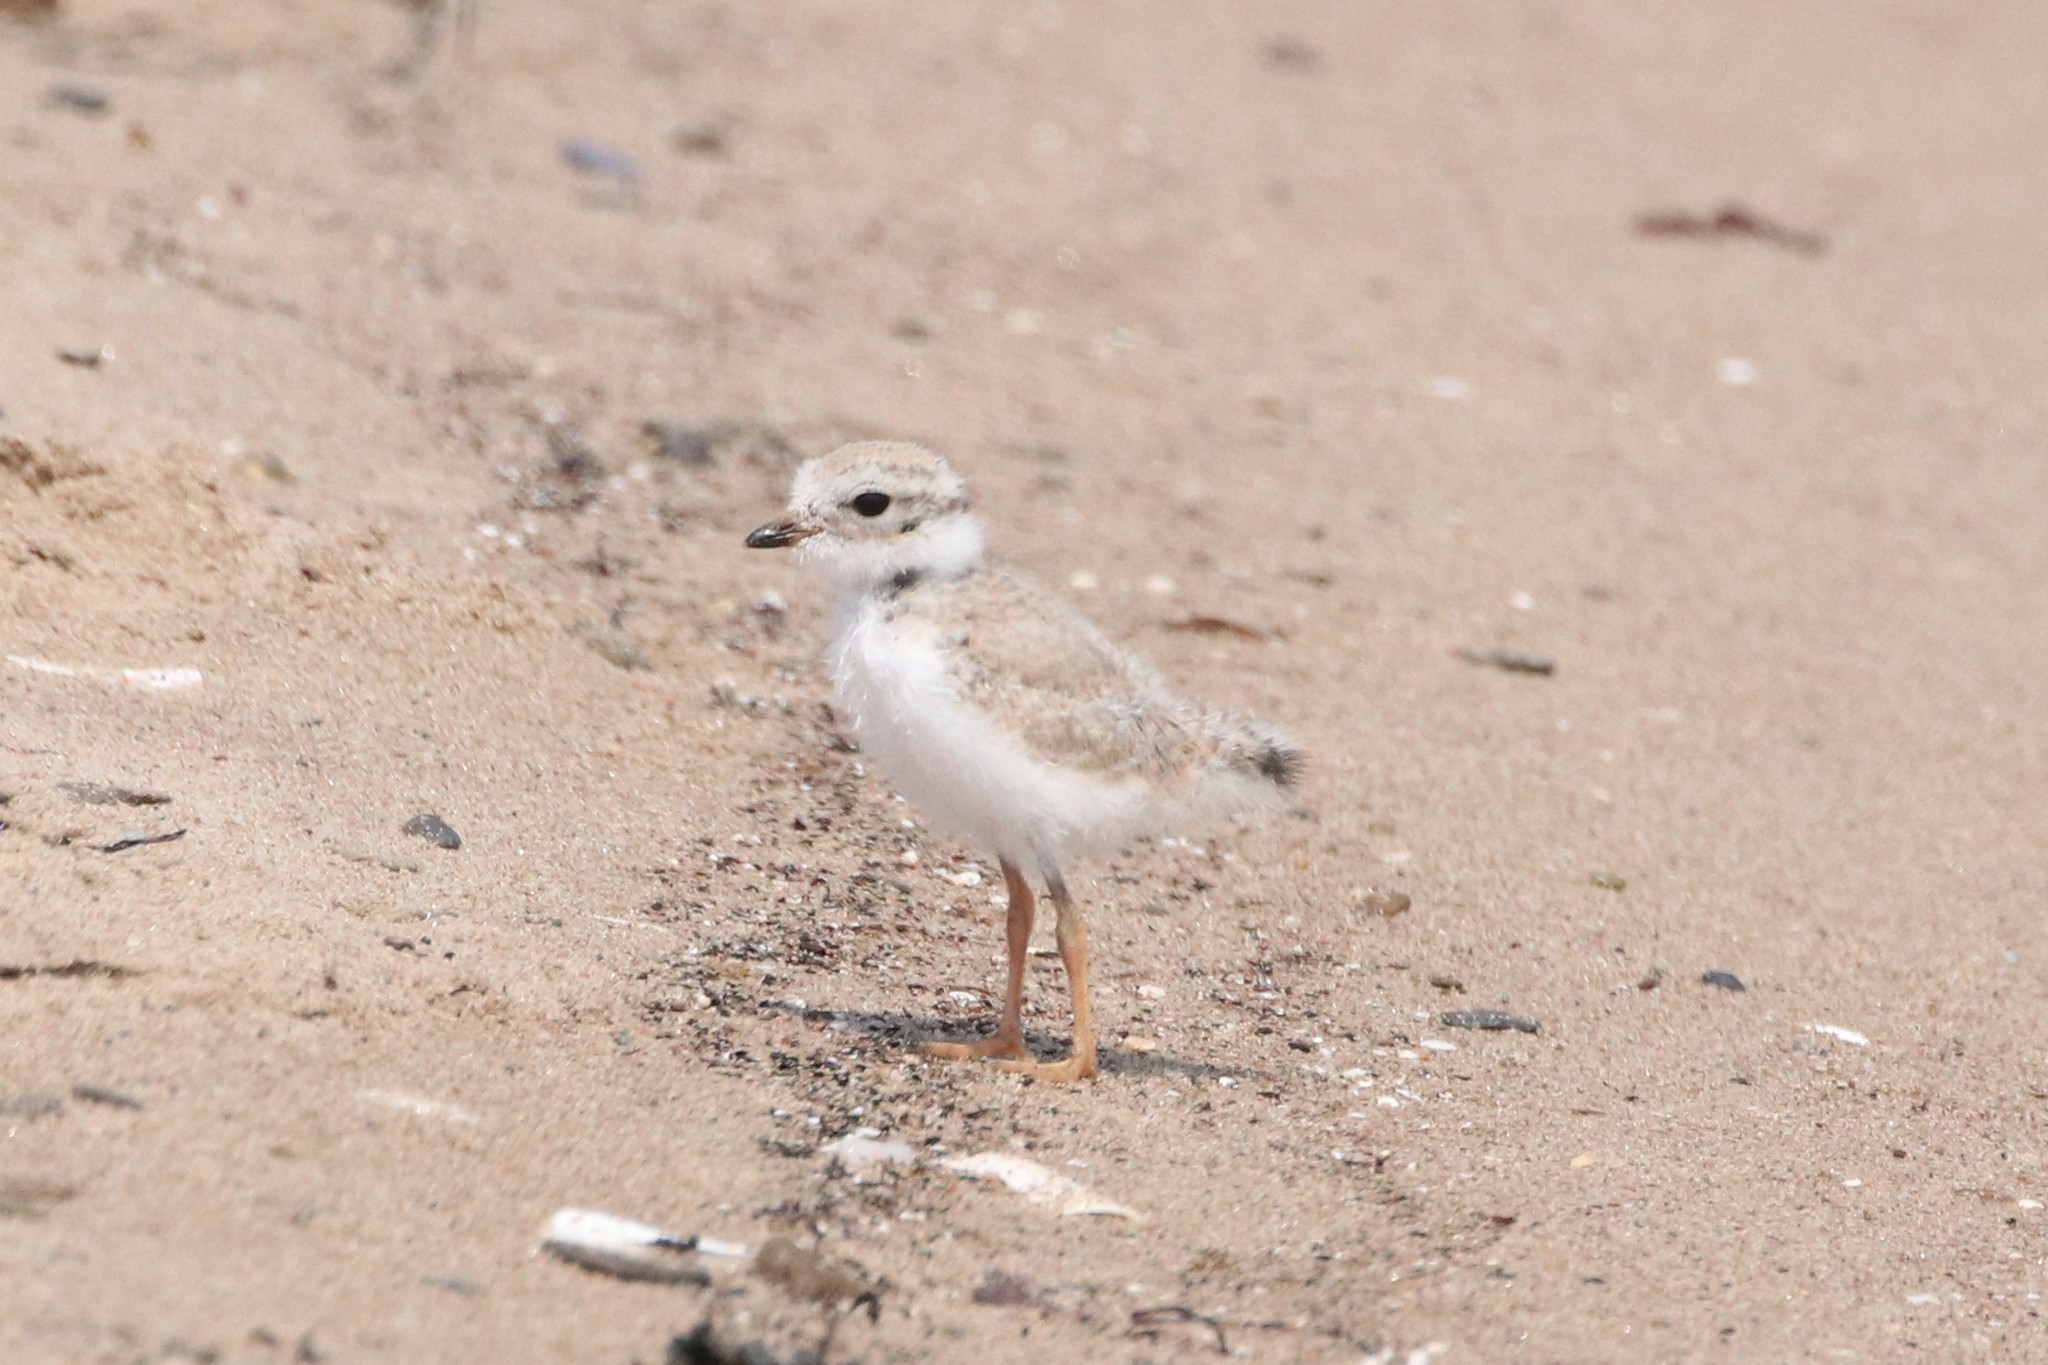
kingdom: Animalia
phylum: Chordata
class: Aves
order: Charadriiformes
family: Charadriidae
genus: Charadrius
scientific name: Charadrius melodus
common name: Piping plover
